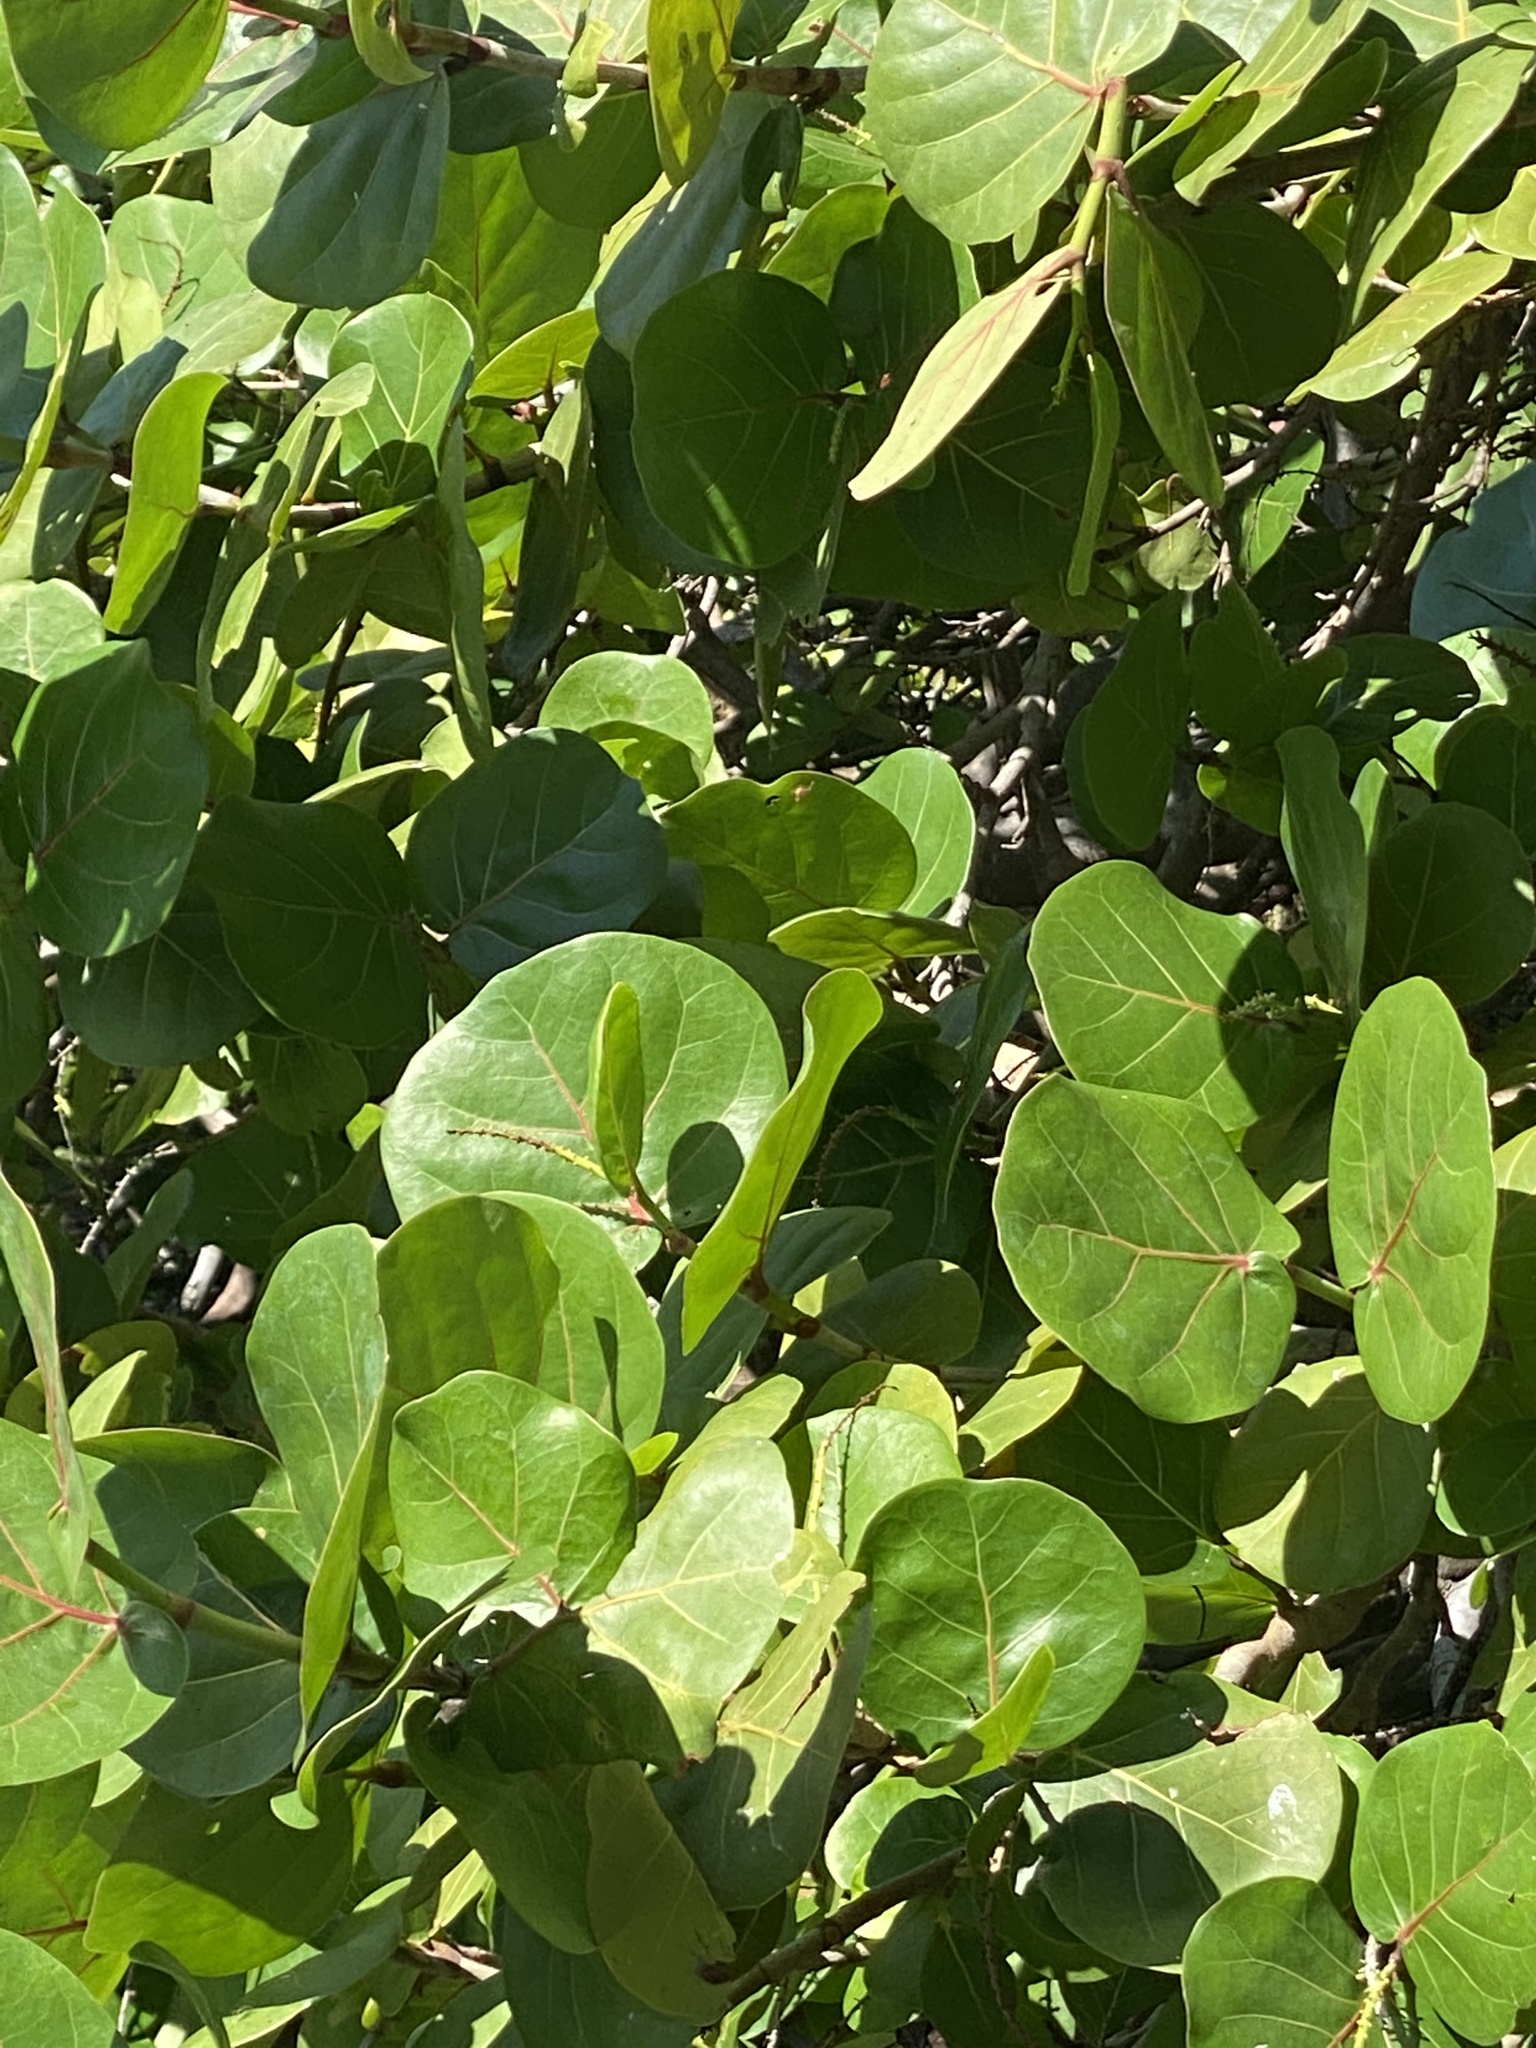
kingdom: Plantae
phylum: Tracheophyta
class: Magnoliopsida
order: Caryophyllales
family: Polygonaceae
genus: Coccoloba
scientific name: Coccoloba uvifera
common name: Seagrape
